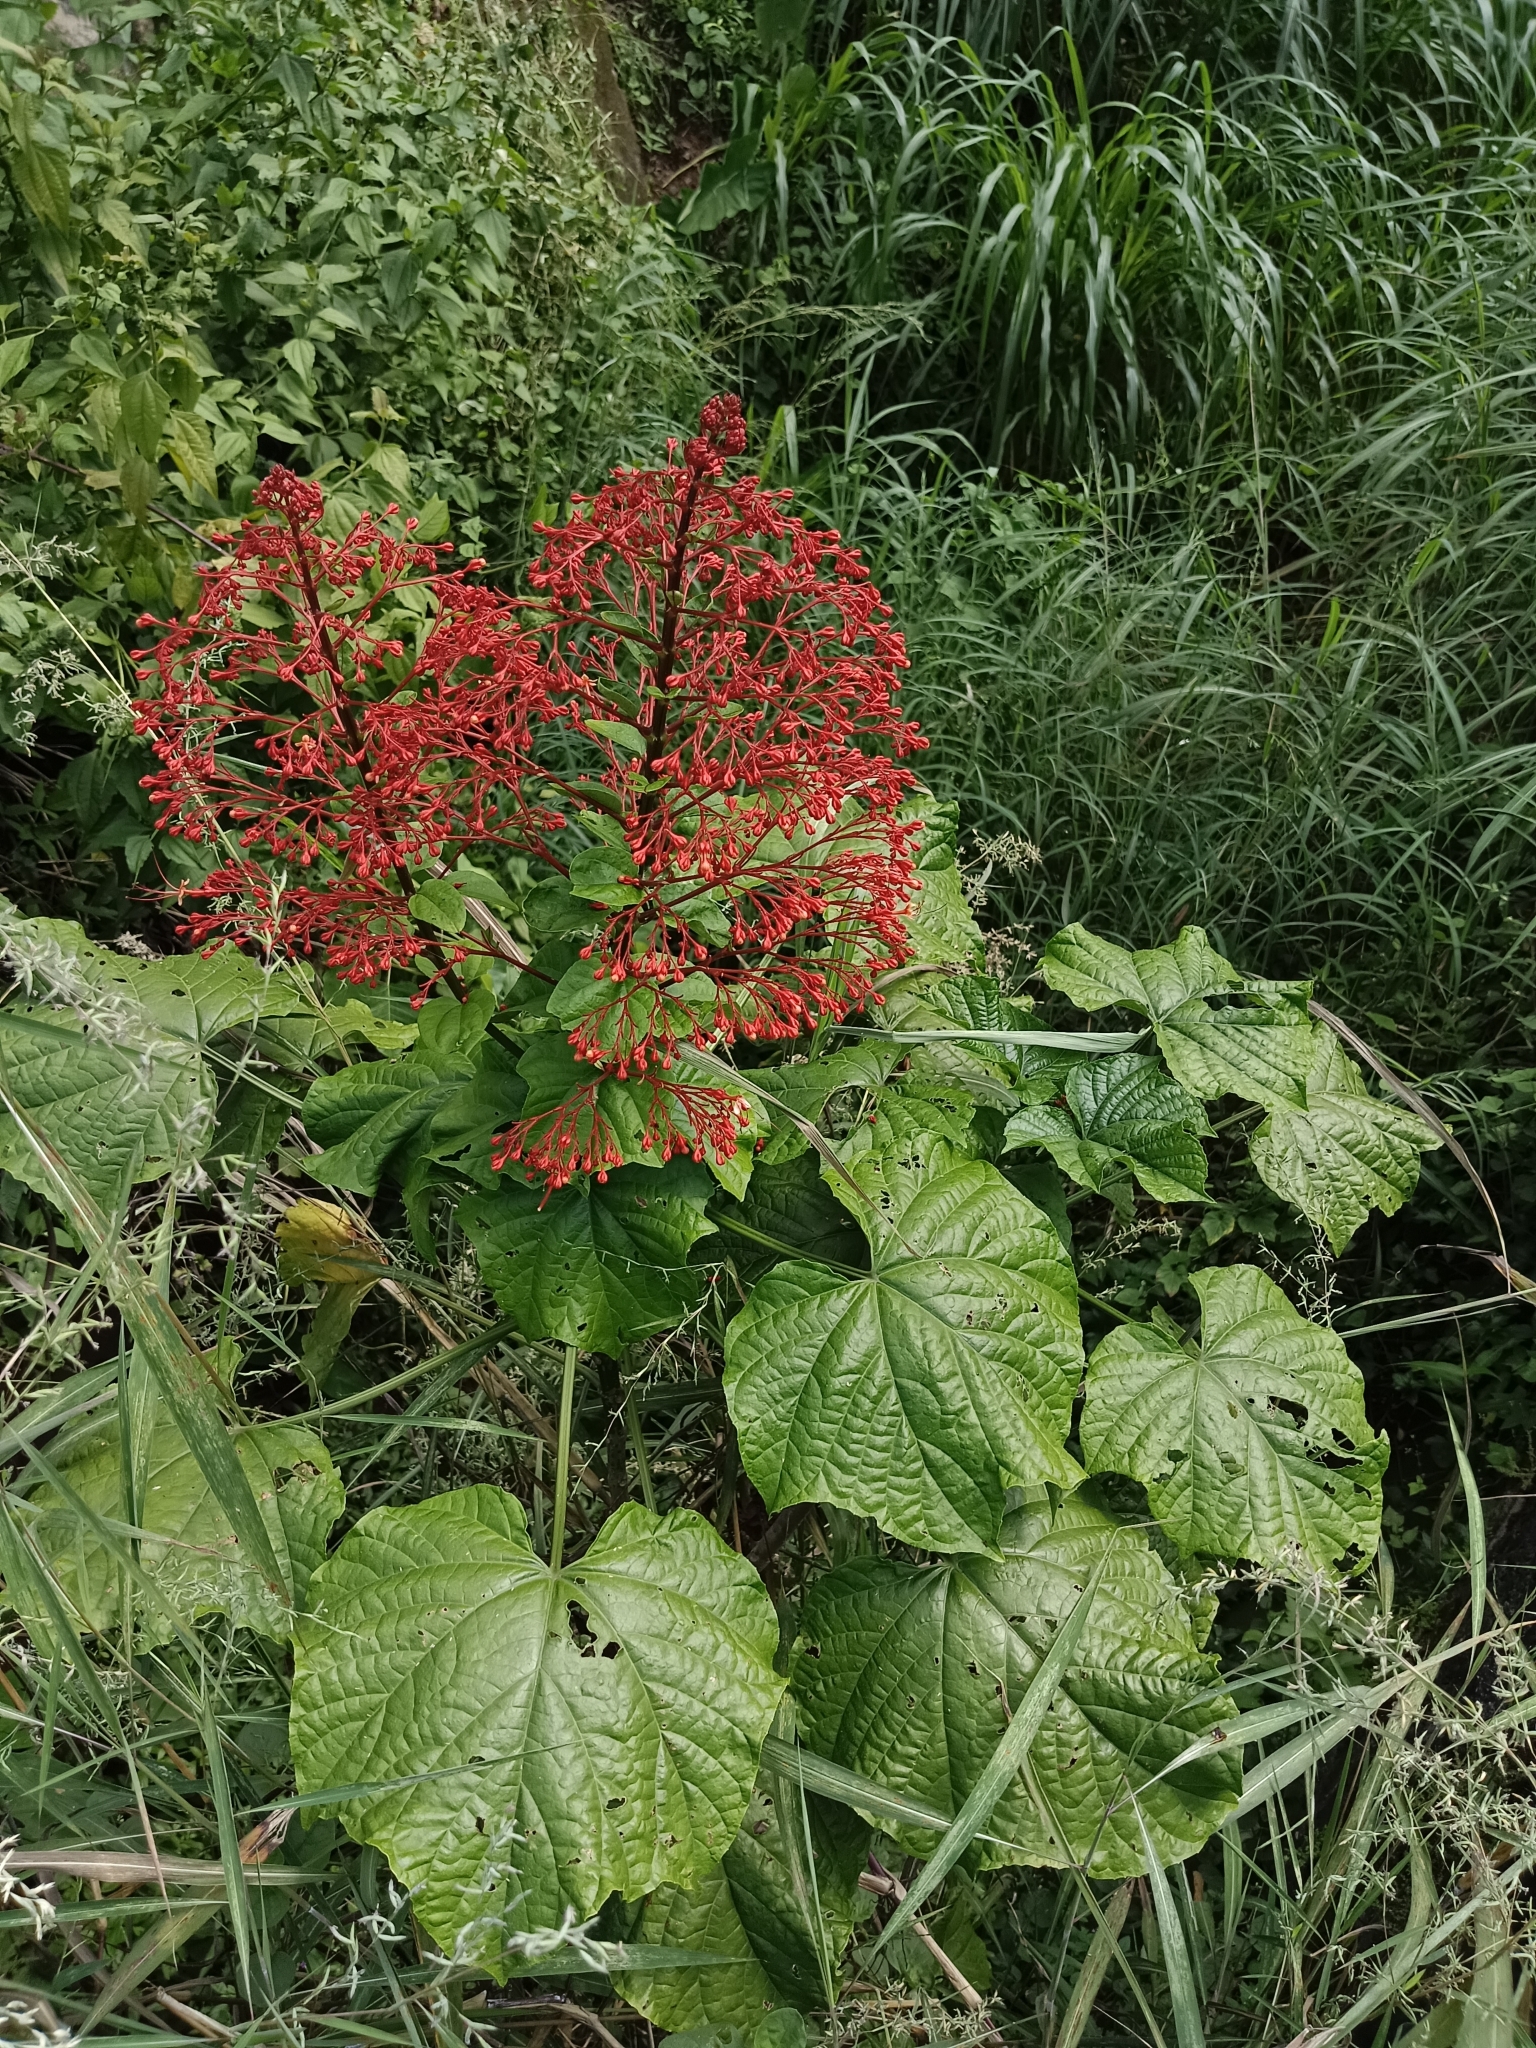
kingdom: Plantae
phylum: Tracheophyta
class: Magnoliopsida
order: Lamiales
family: Lamiaceae
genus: Clerodendrum
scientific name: Clerodendrum paniculatum
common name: Pagoda-flower
